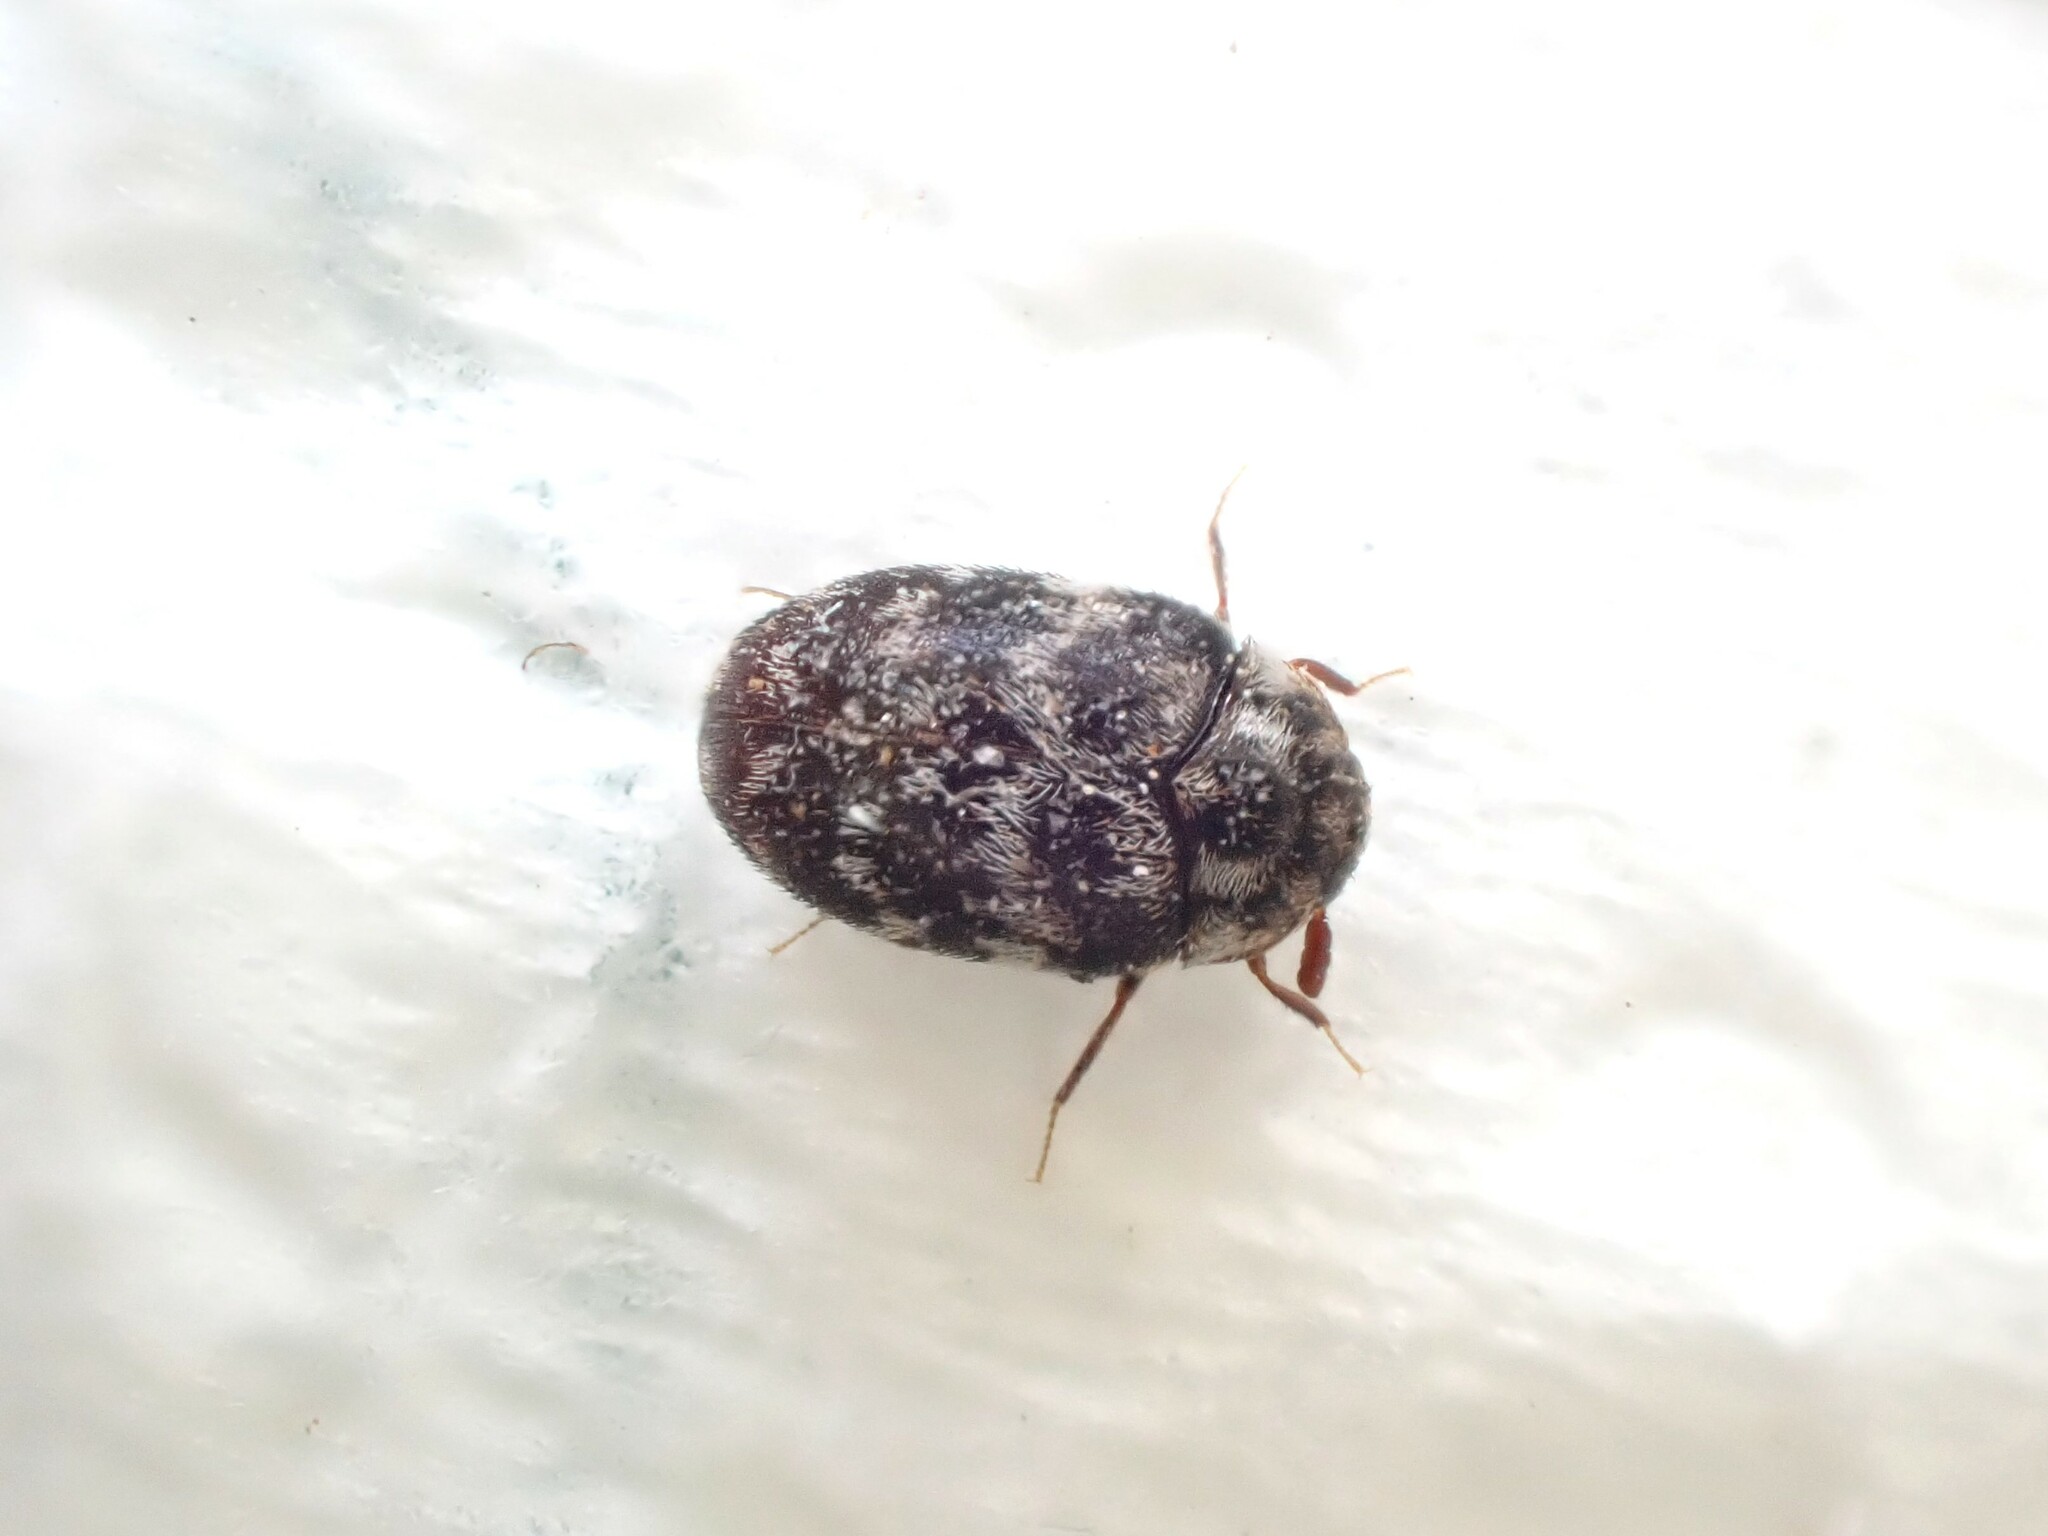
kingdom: Animalia
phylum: Arthropoda
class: Insecta
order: Coleoptera
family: Dermestidae
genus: Anthrenocerus
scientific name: Anthrenocerus australis
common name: Australian carpet beetle
